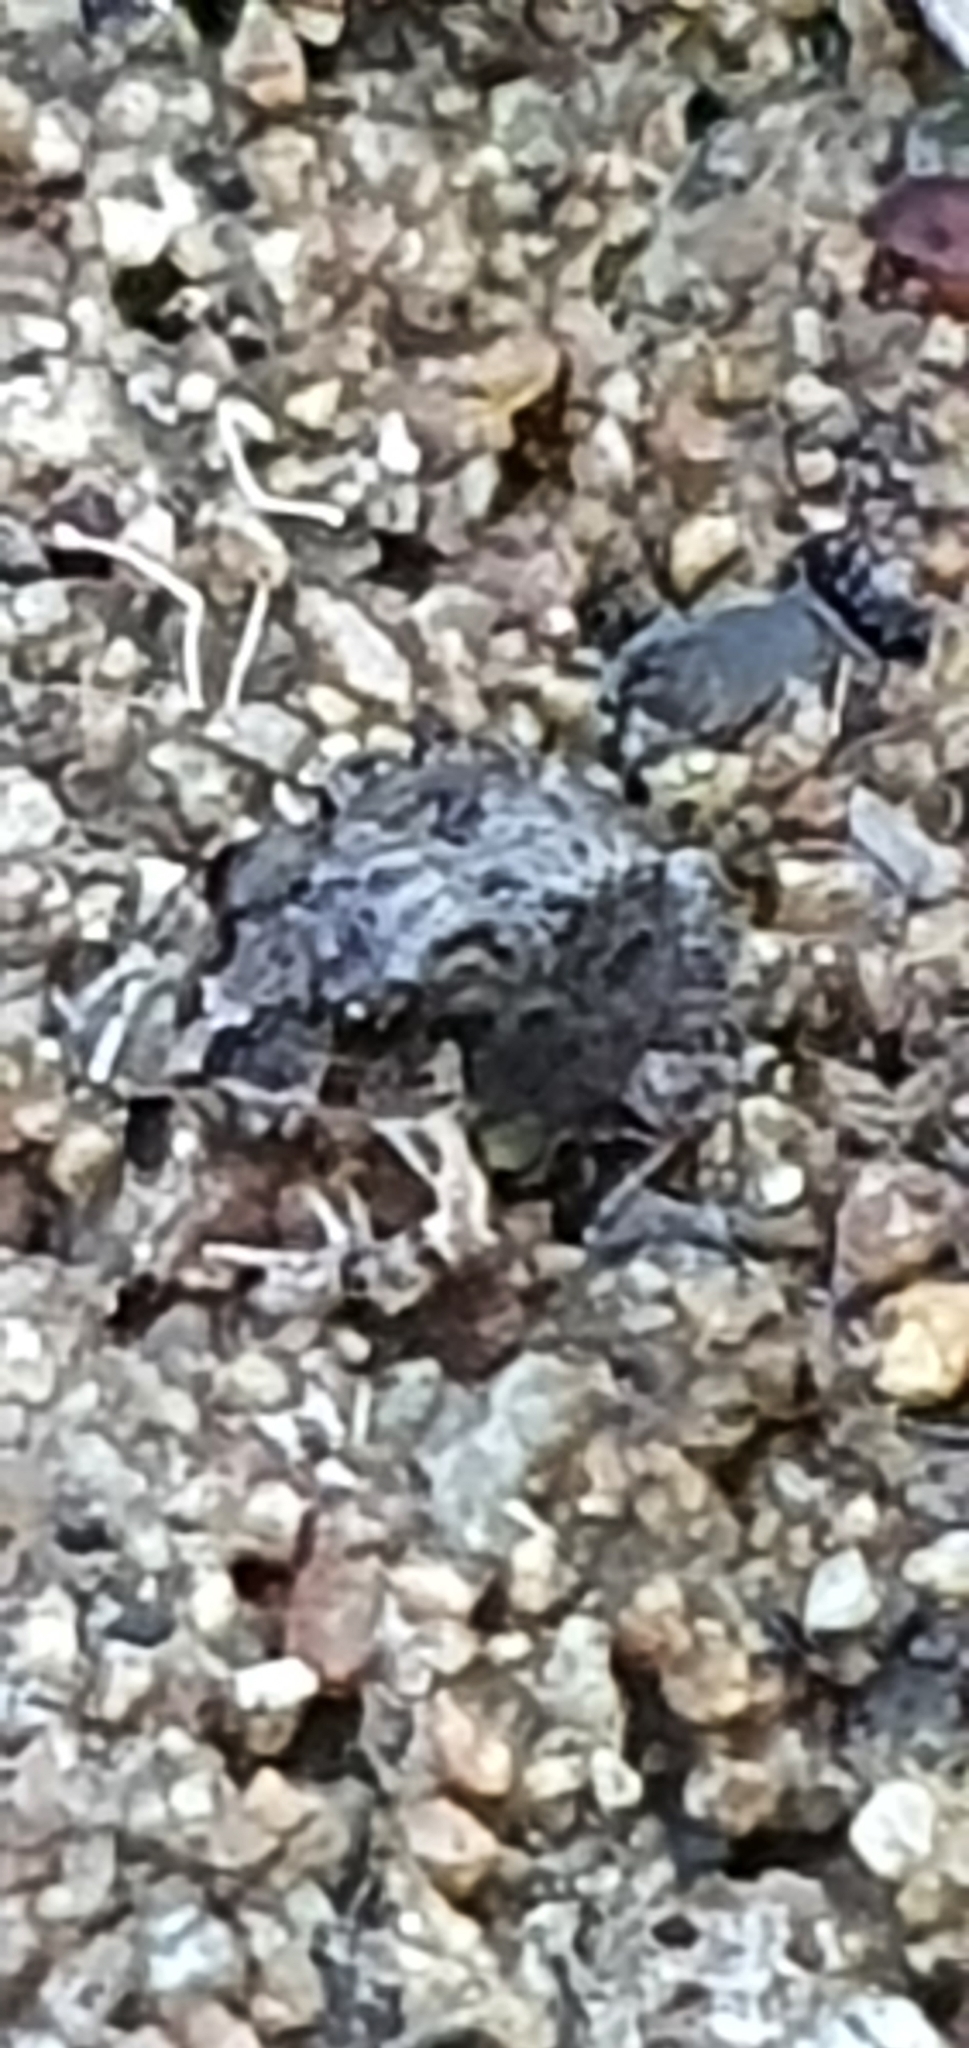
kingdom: Animalia
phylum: Chordata
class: Amphibia
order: Anura
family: Limnodynastidae
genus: Platyplectrum
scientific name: Platyplectrum ornatum
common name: Ornate burrowing frog
